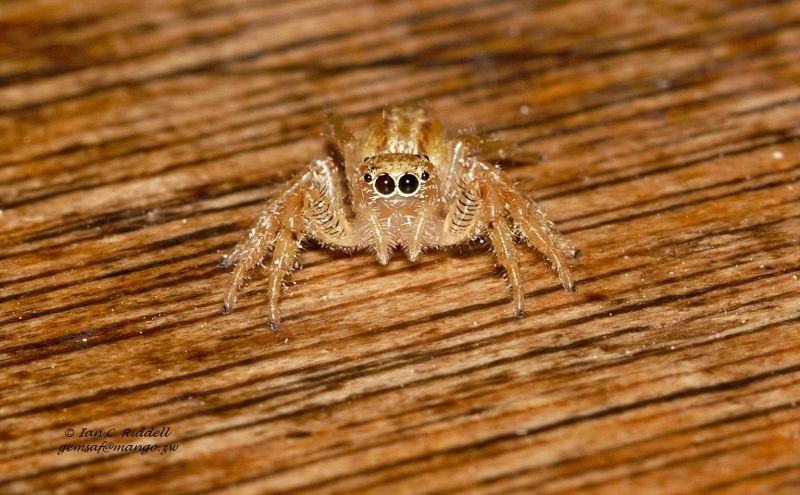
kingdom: Animalia
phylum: Arthropoda
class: Arachnida
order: Araneae
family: Salticidae
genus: Thyene
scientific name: Thyene ogdeni
